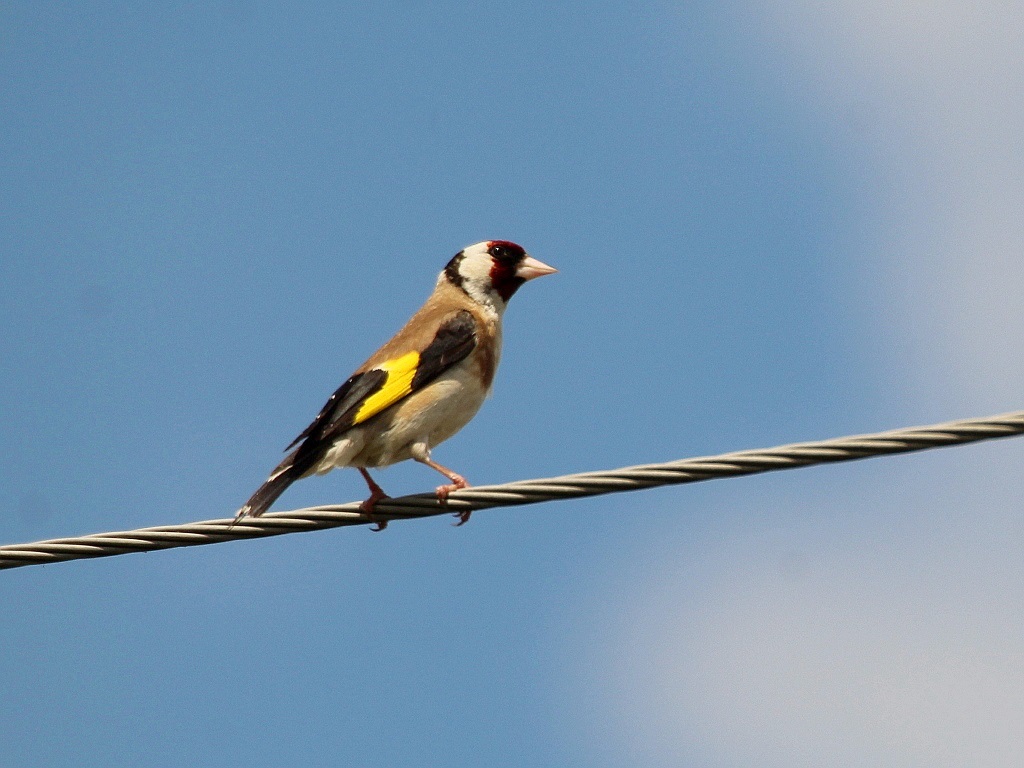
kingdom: Animalia
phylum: Chordata
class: Aves
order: Passeriformes
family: Fringillidae
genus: Carduelis
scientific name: Carduelis carduelis
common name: European goldfinch
